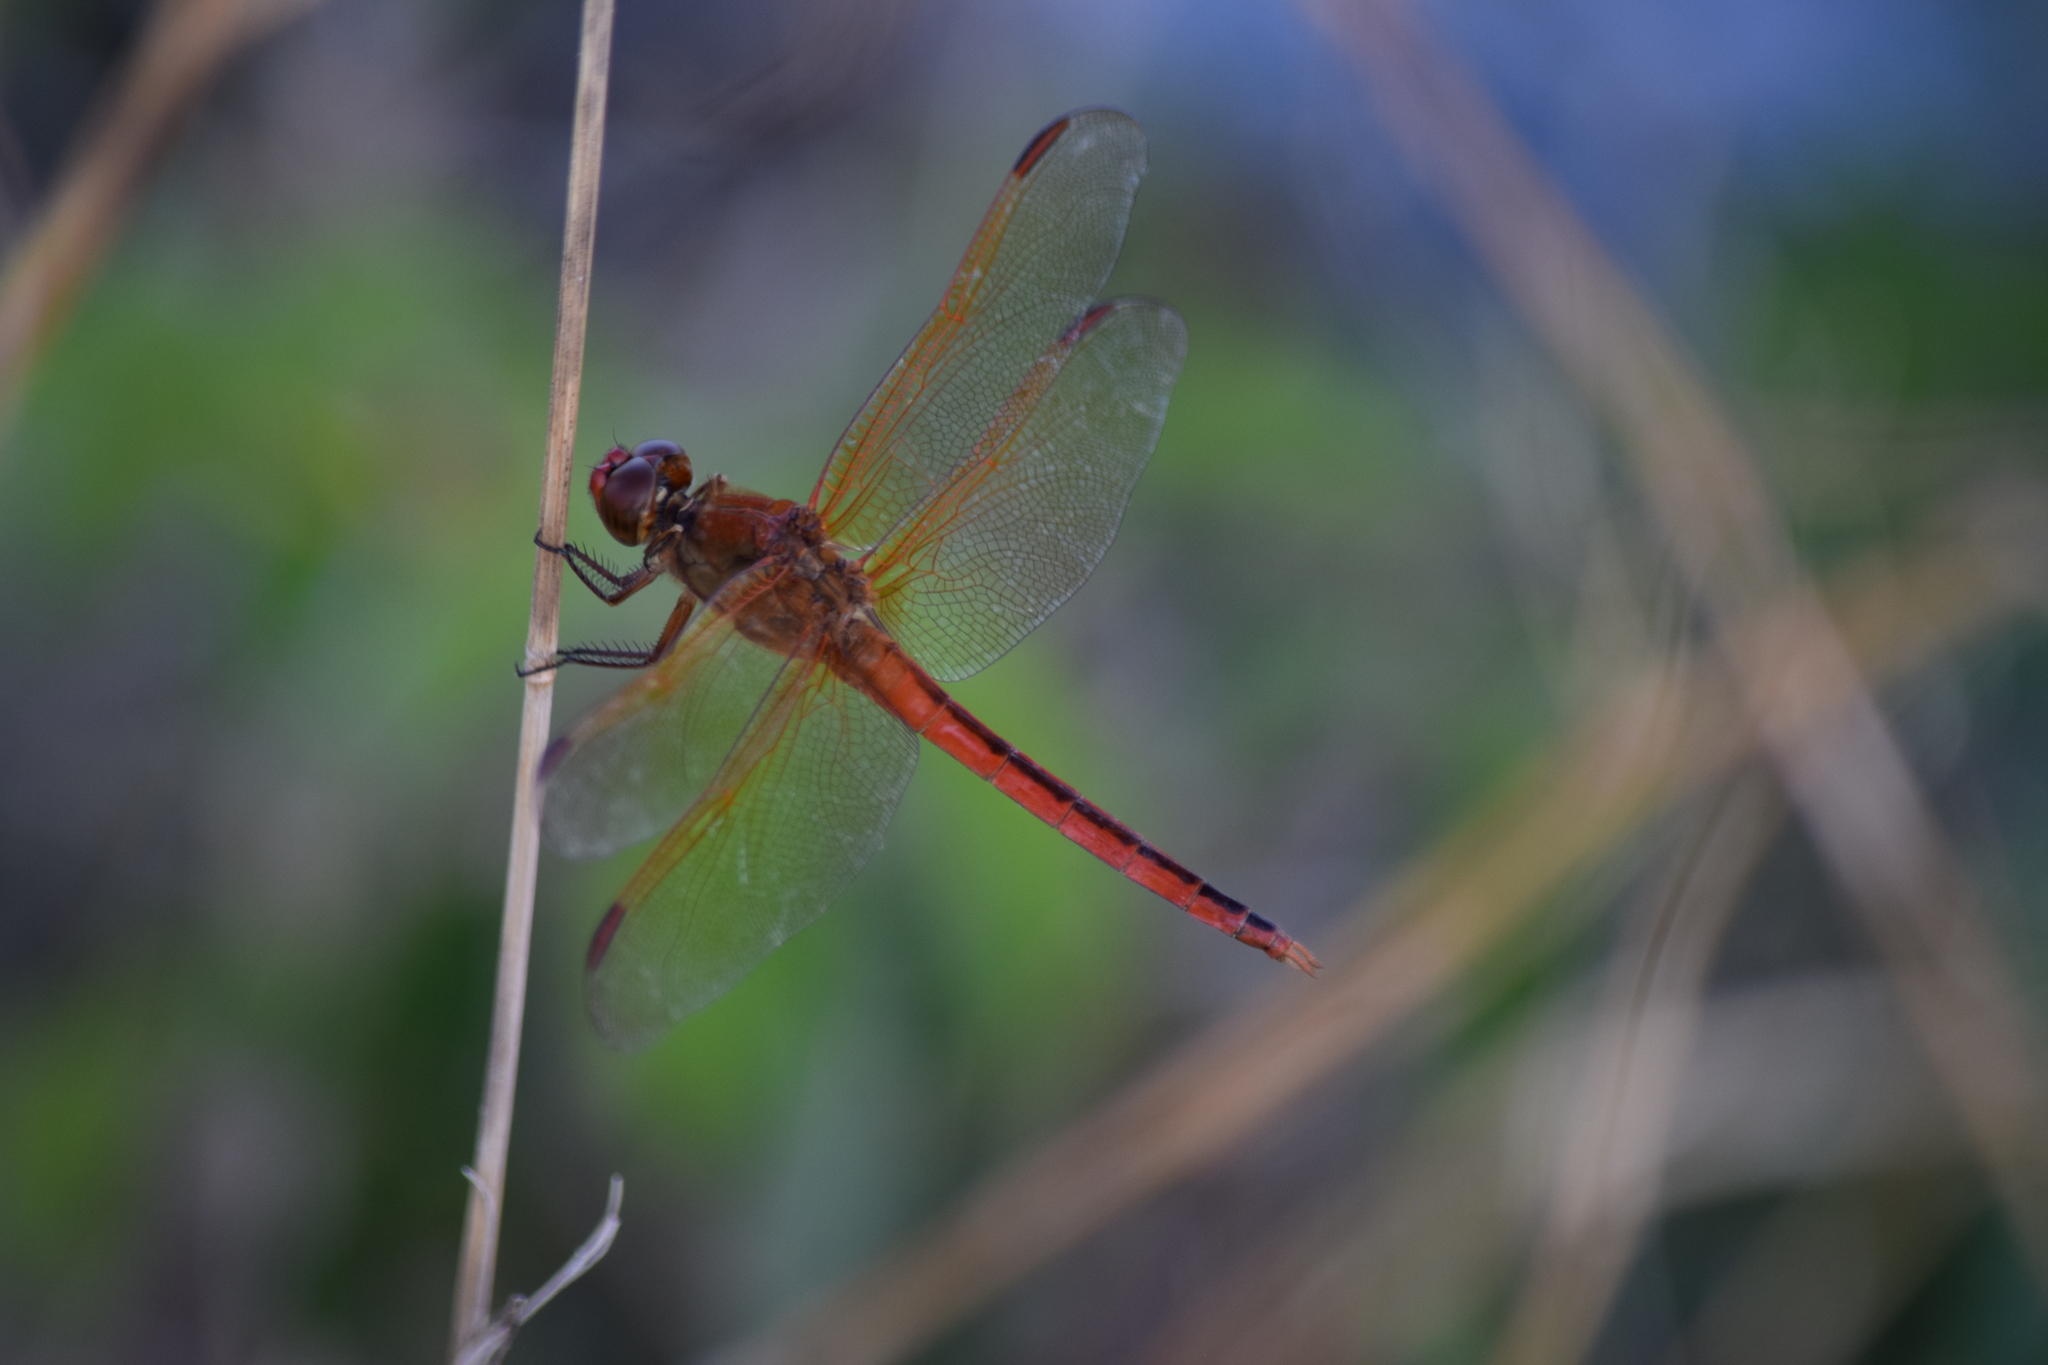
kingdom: Animalia
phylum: Arthropoda
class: Insecta
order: Odonata
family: Libellulidae
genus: Libellula
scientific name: Libellula needhami
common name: Needham's skimmer
